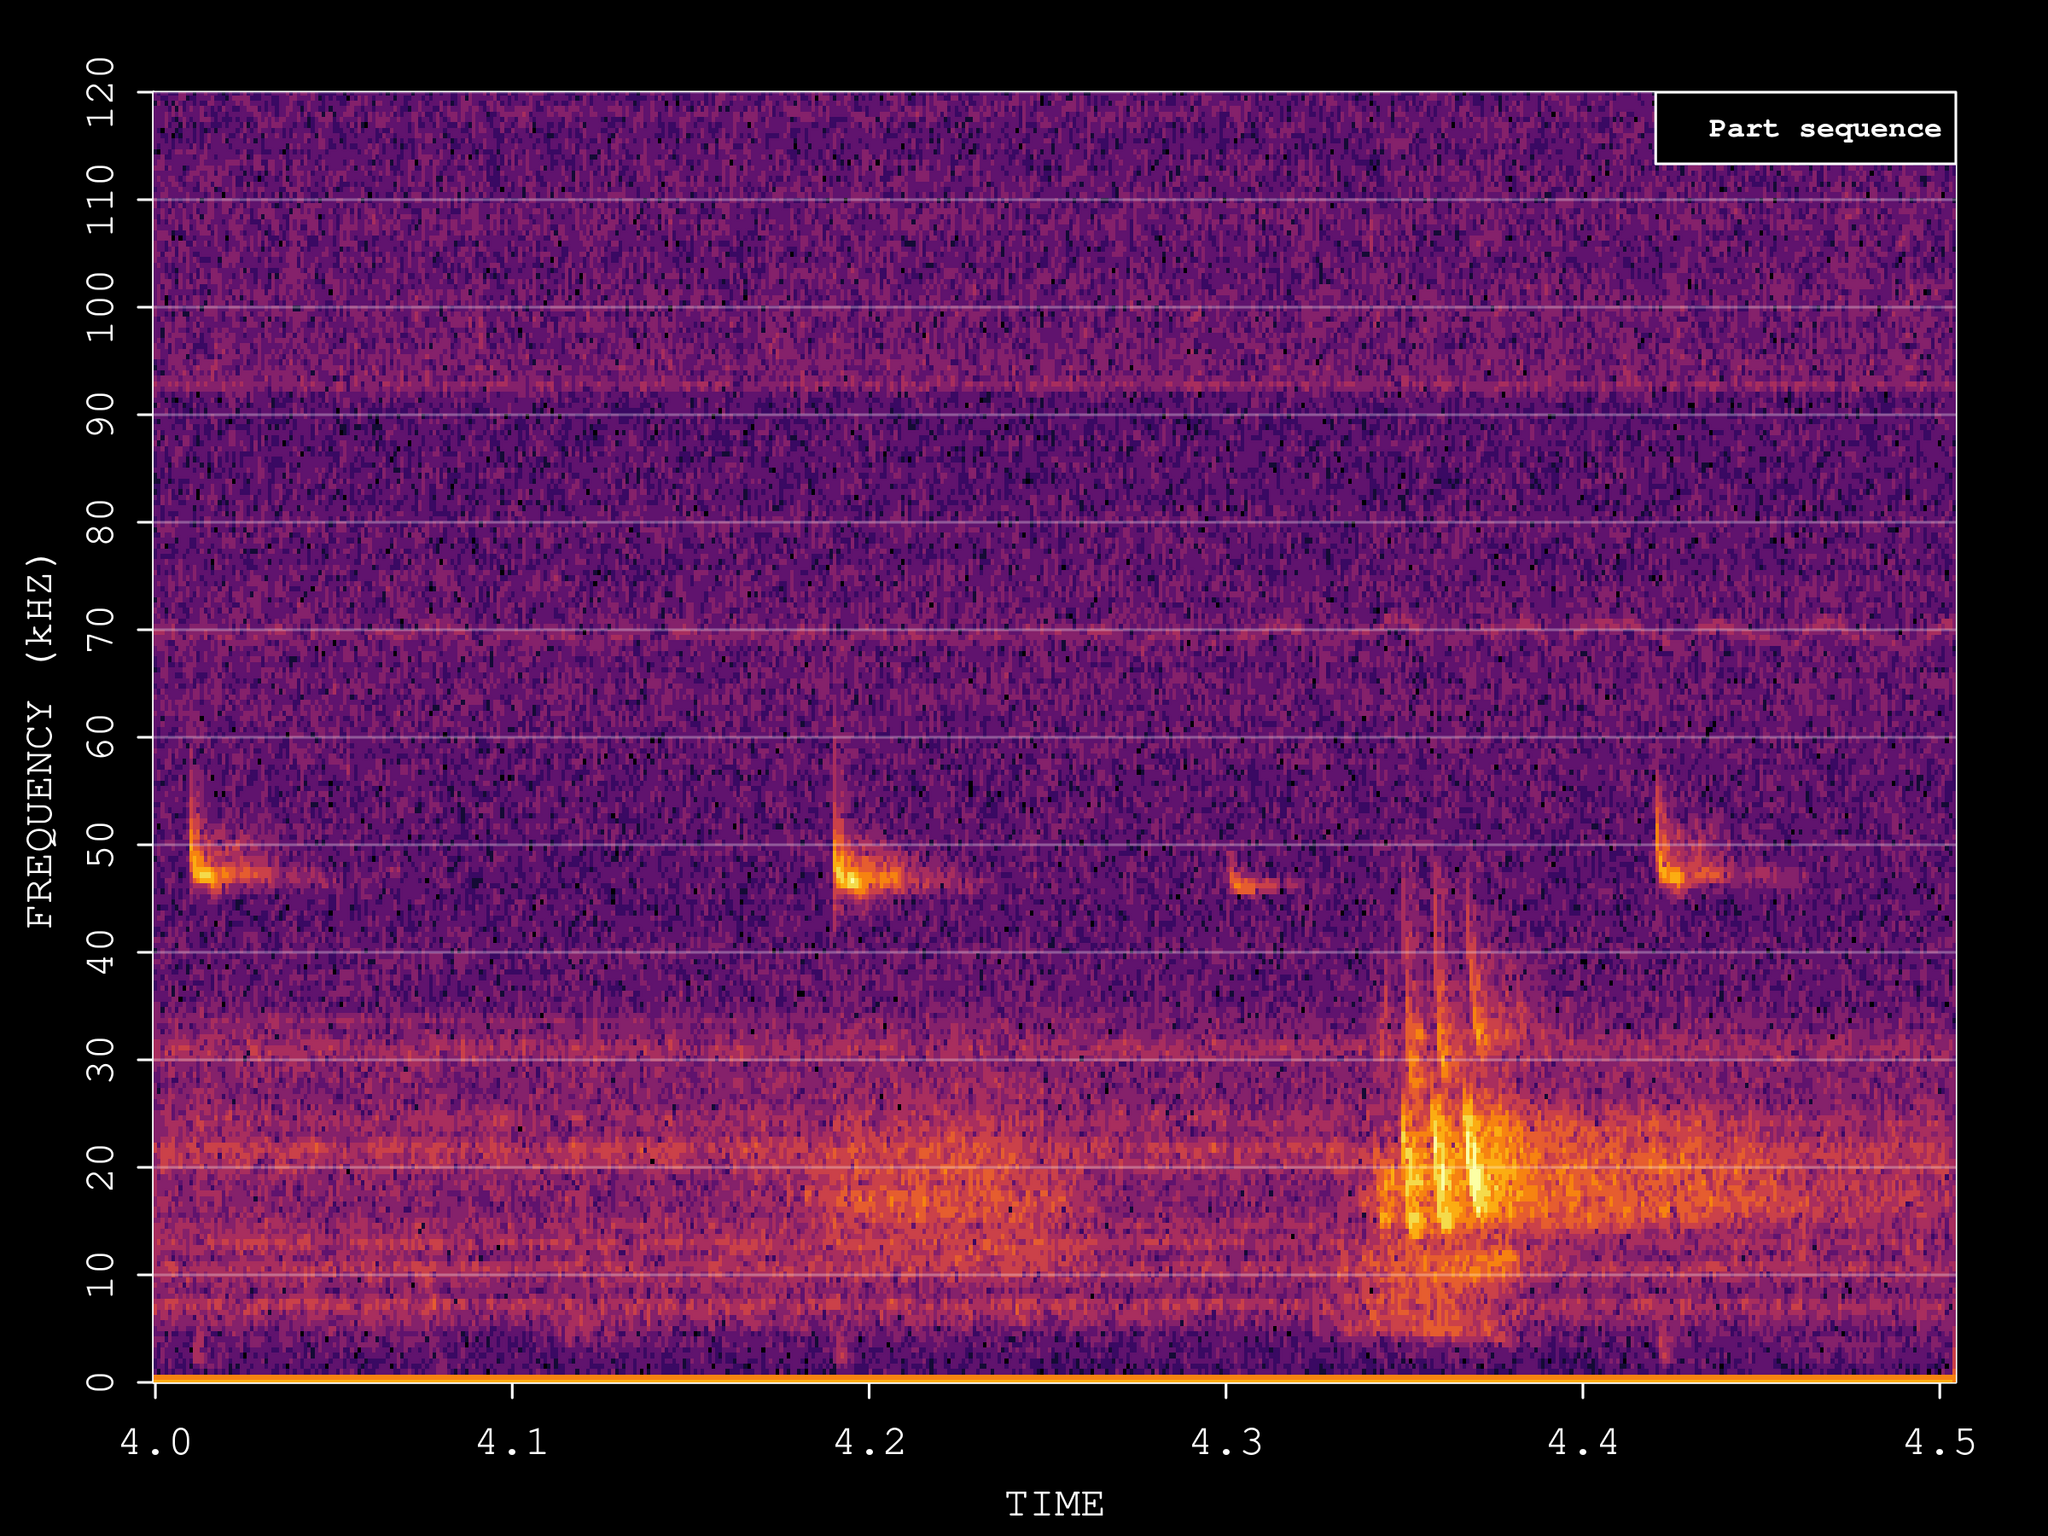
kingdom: Animalia
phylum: Chordata
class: Mammalia
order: Chiroptera
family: Vespertilionidae
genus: Pipistrellus
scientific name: Pipistrellus pipistrellus
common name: Common pipistrelle
